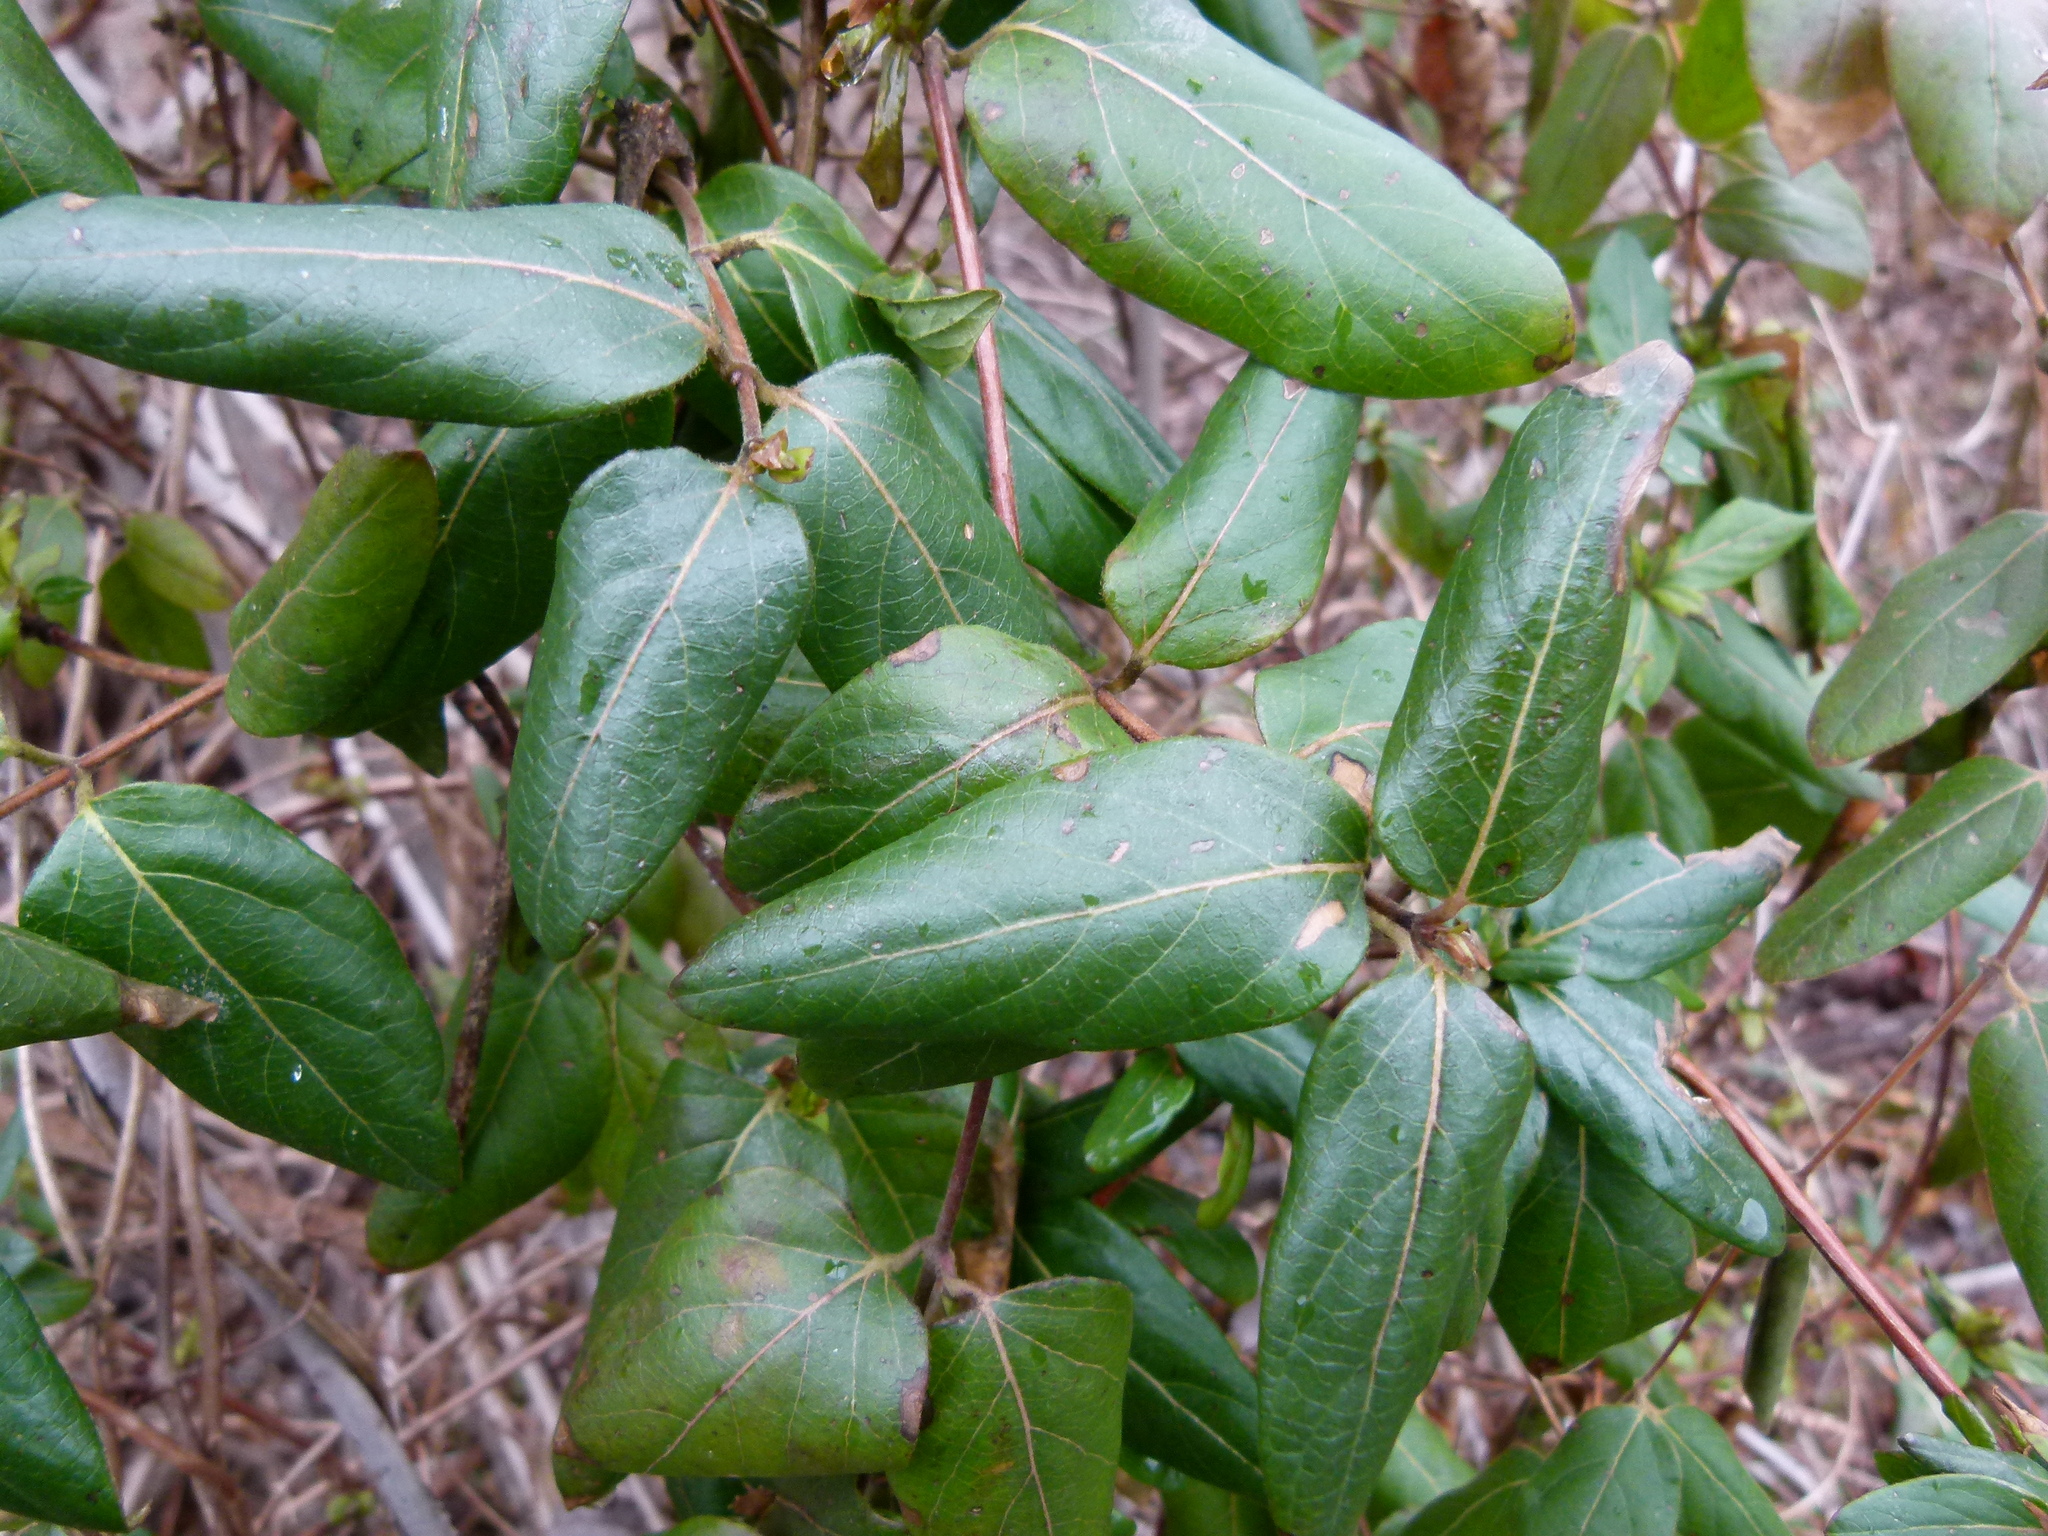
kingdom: Plantae
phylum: Tracheophyta
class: Magnoliopsida
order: Dipsacales
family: Caprifoliaceae
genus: Lonicera
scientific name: Lonicera japonica
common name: Japanese honeysuckle
